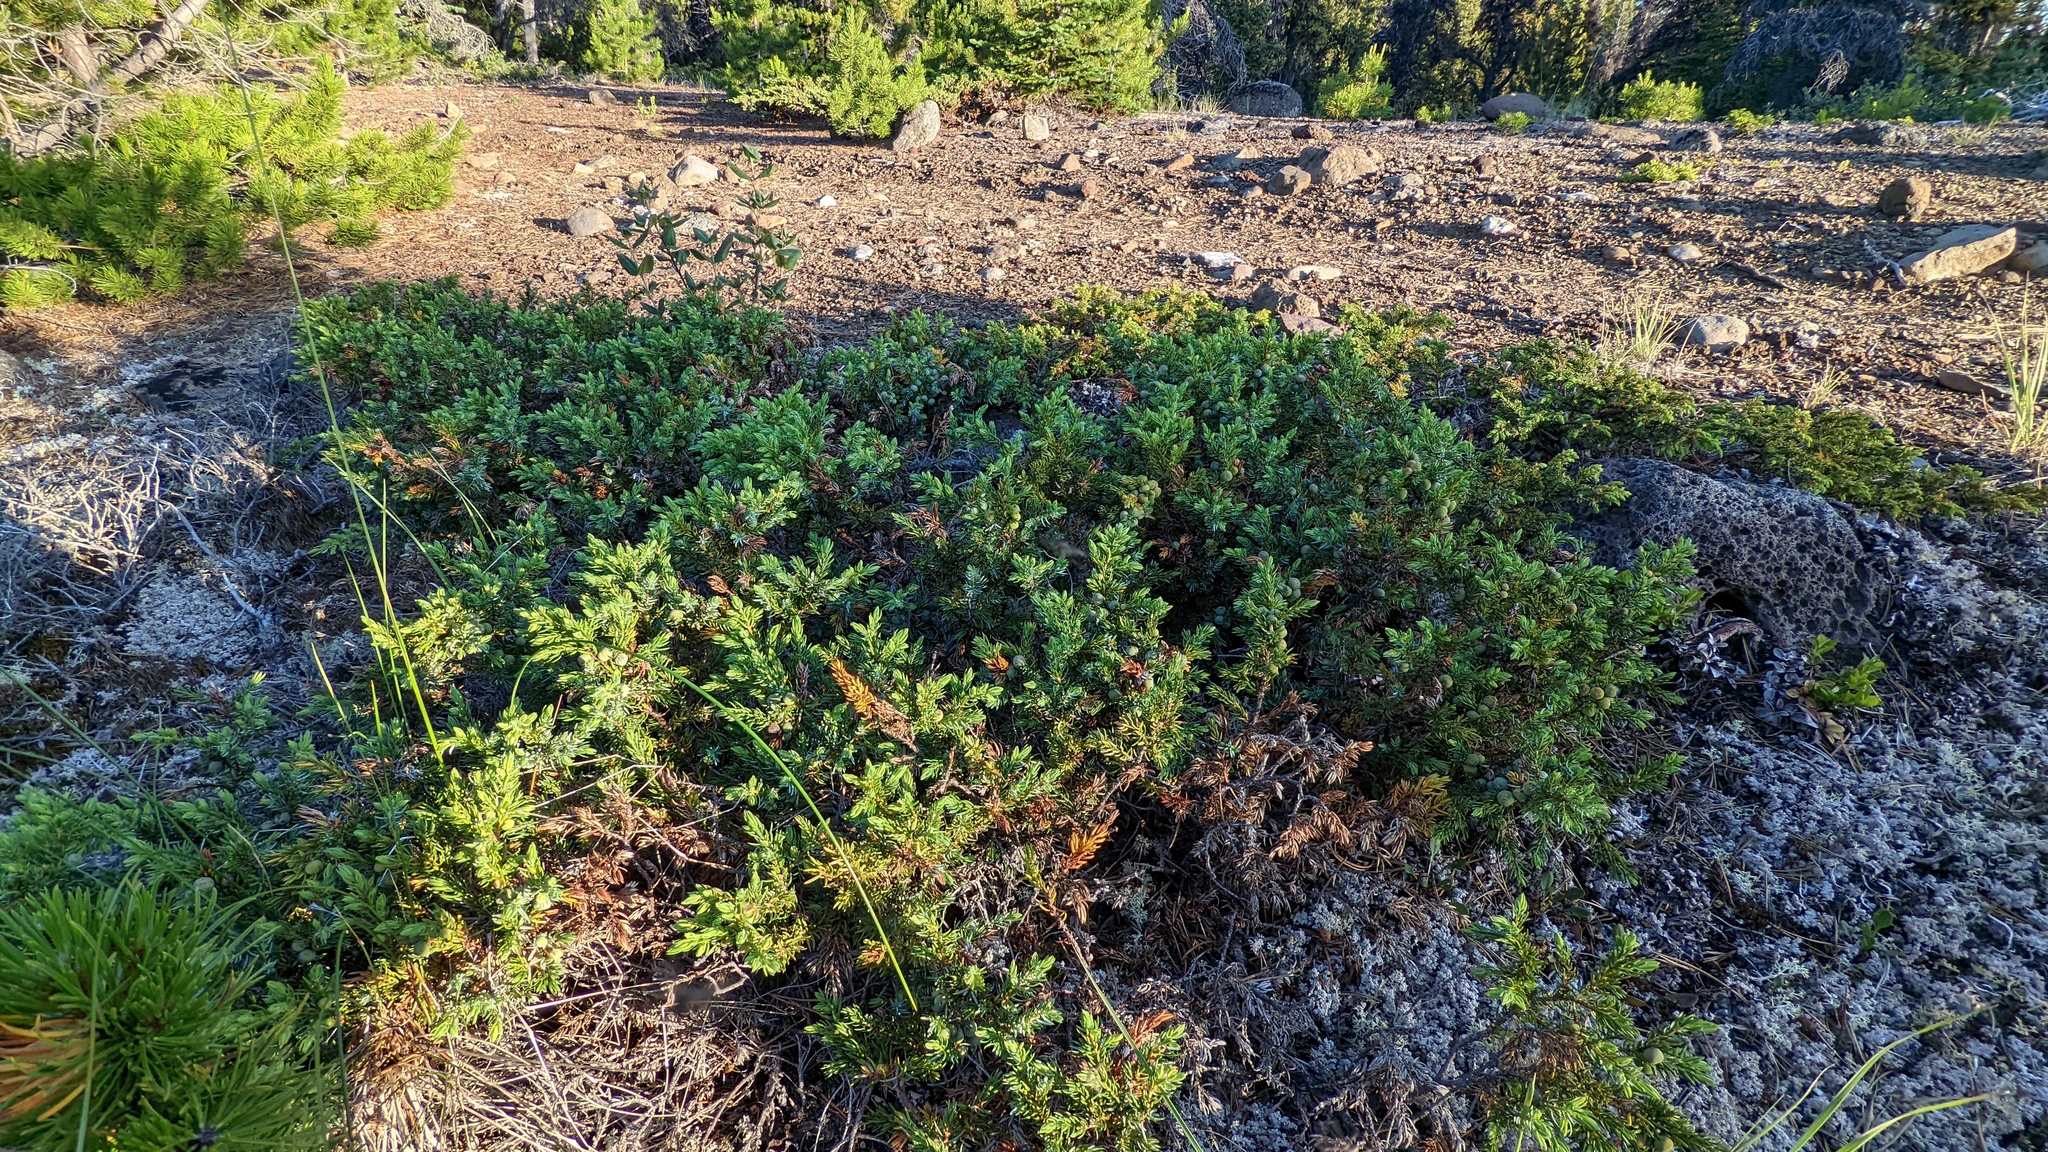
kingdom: Plantae
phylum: Tracheophyta
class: Pinopsida
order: Pinales
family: Cupressaceae
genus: Juniperus
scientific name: Juniperus communis
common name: Common juniper
